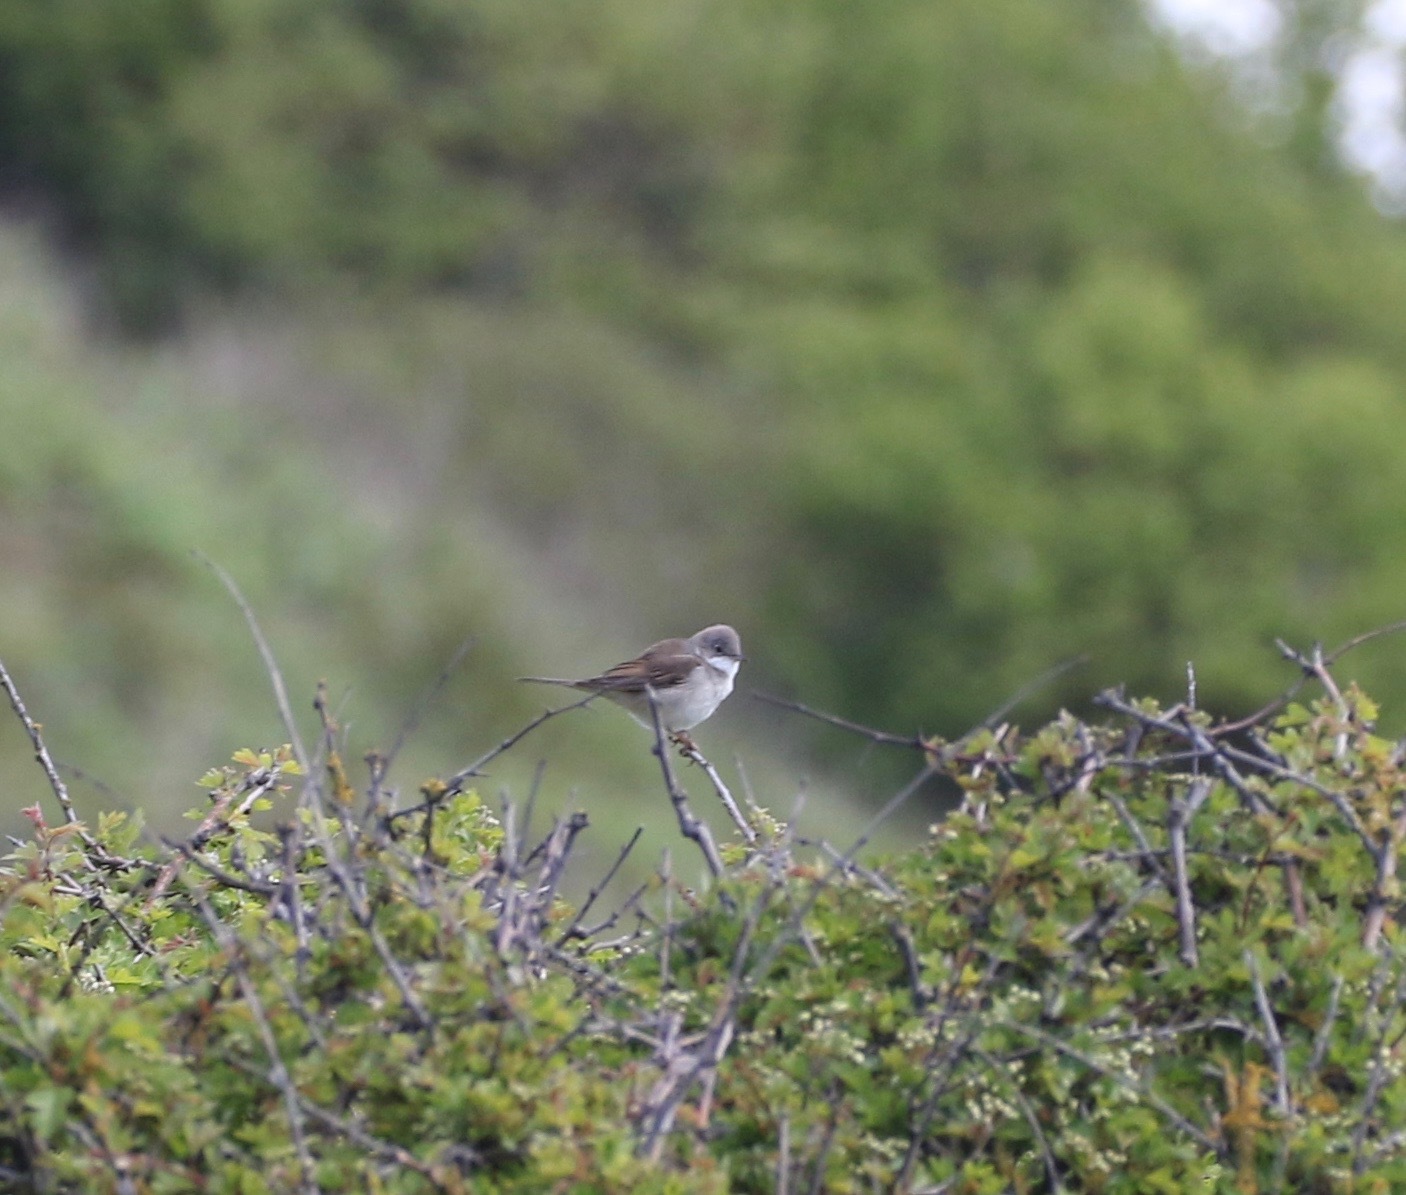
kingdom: Animalia
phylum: Chordata
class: Aves
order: Passeriformes
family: Sylviidae
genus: Sylvia
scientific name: Sylvia communis
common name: Common whitethroat
